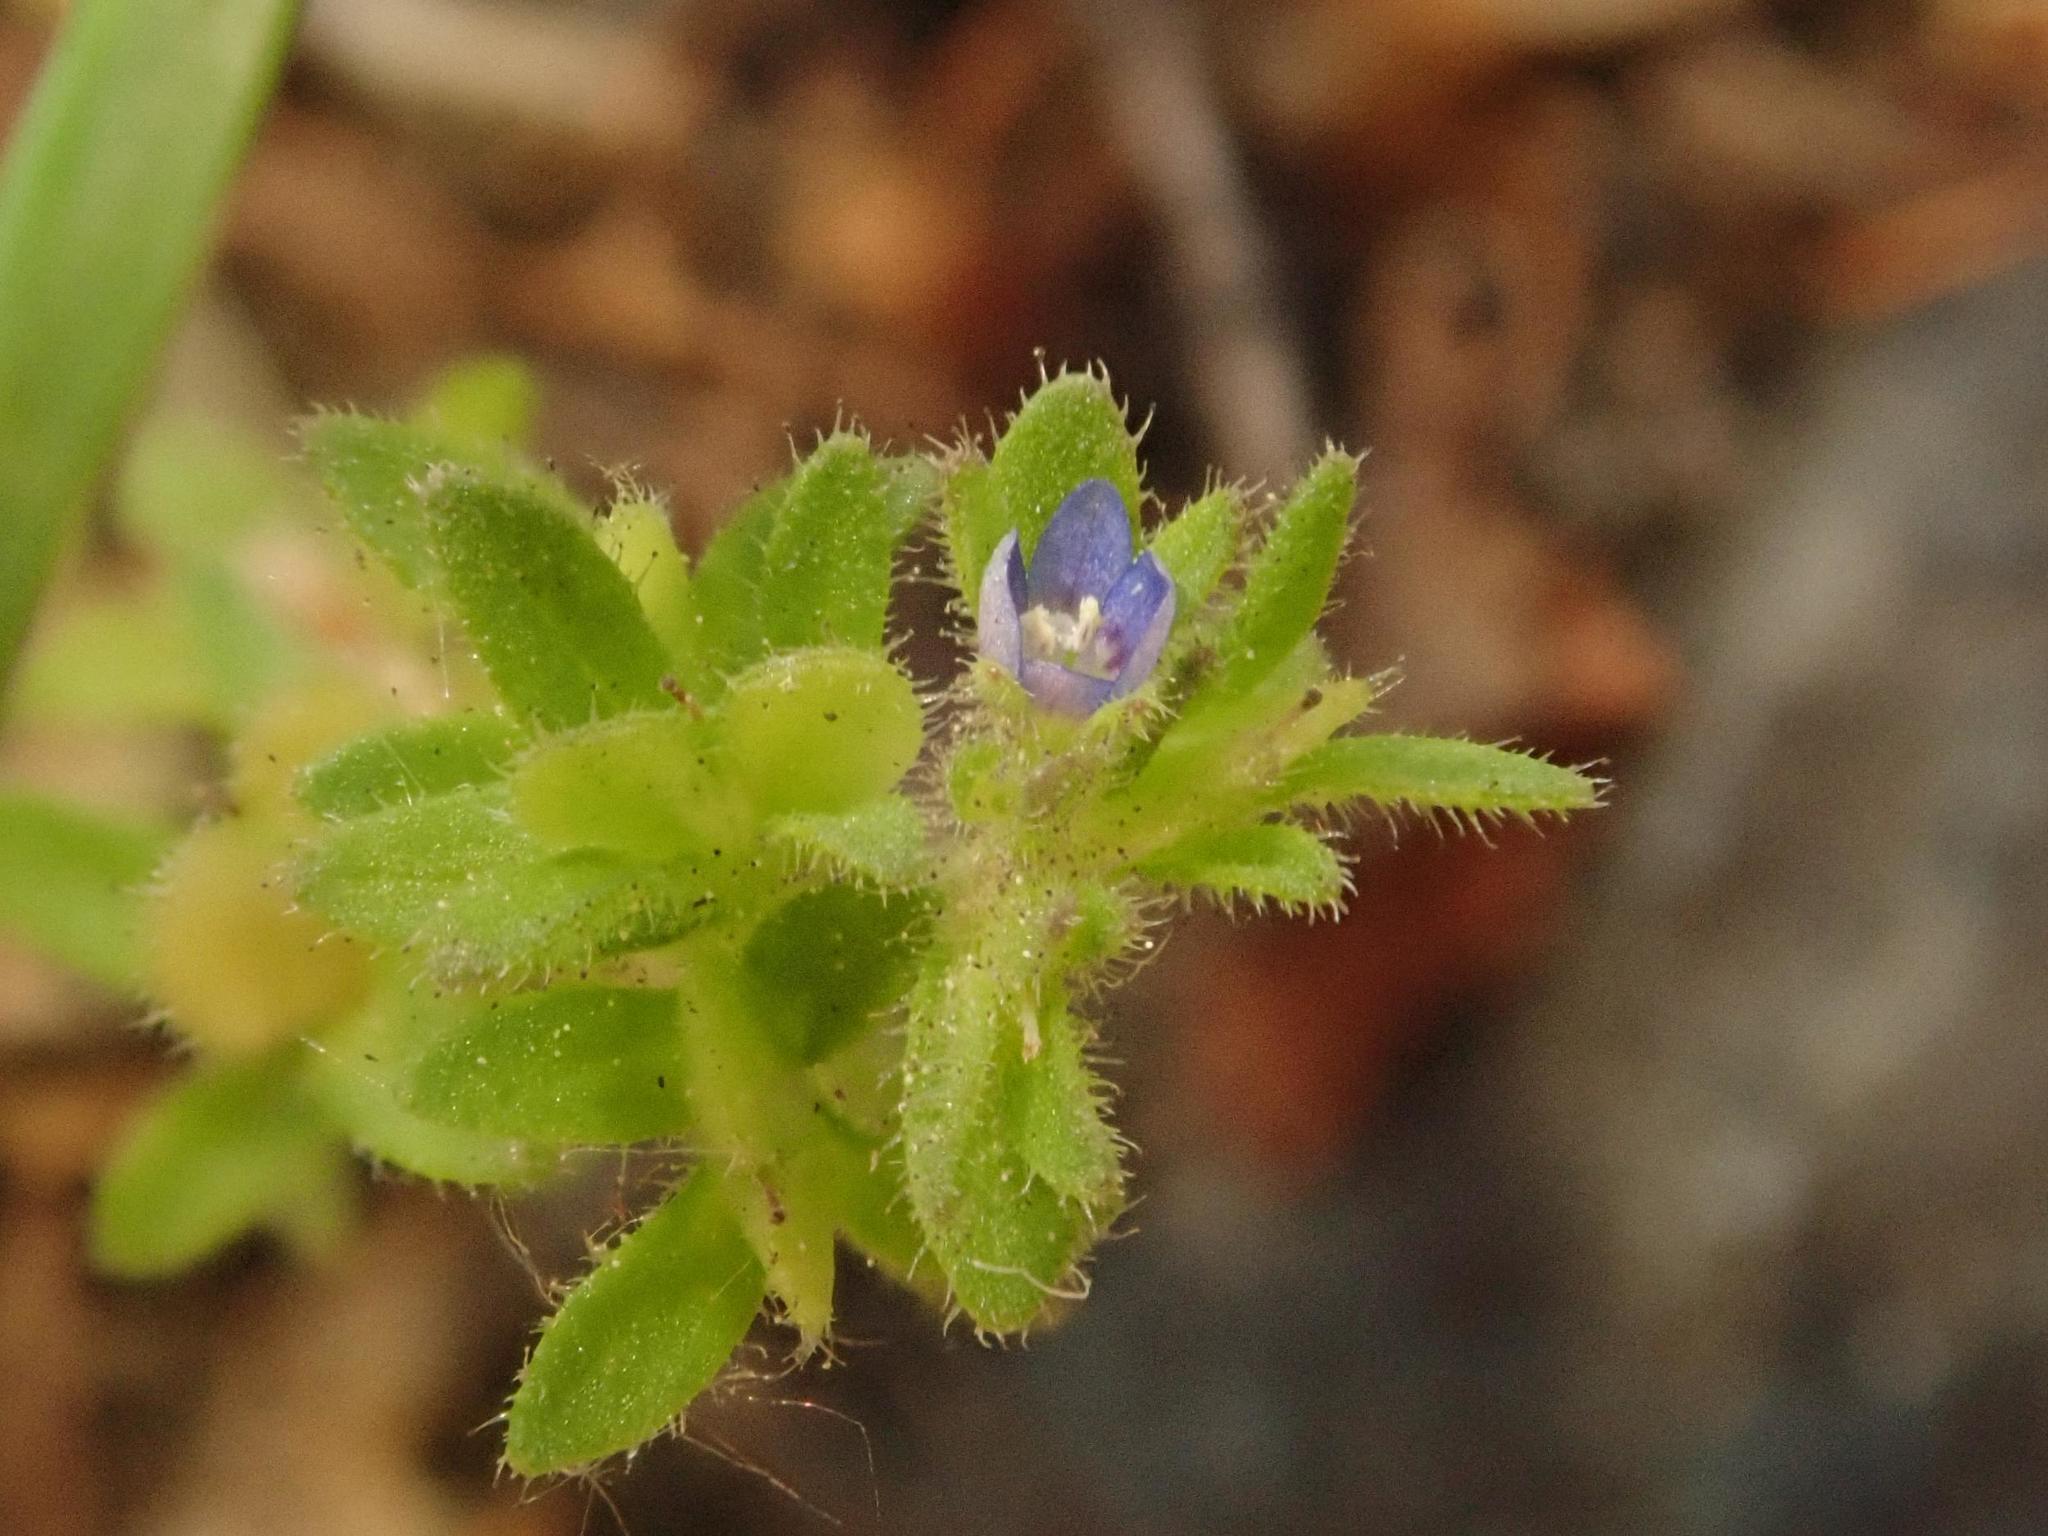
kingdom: Plantae
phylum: Tracheophyta
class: Magnoliopsida
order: Lamiales
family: Plantaginaceae
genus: Veronica
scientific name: Veronica arvensis
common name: Corn speedwell
